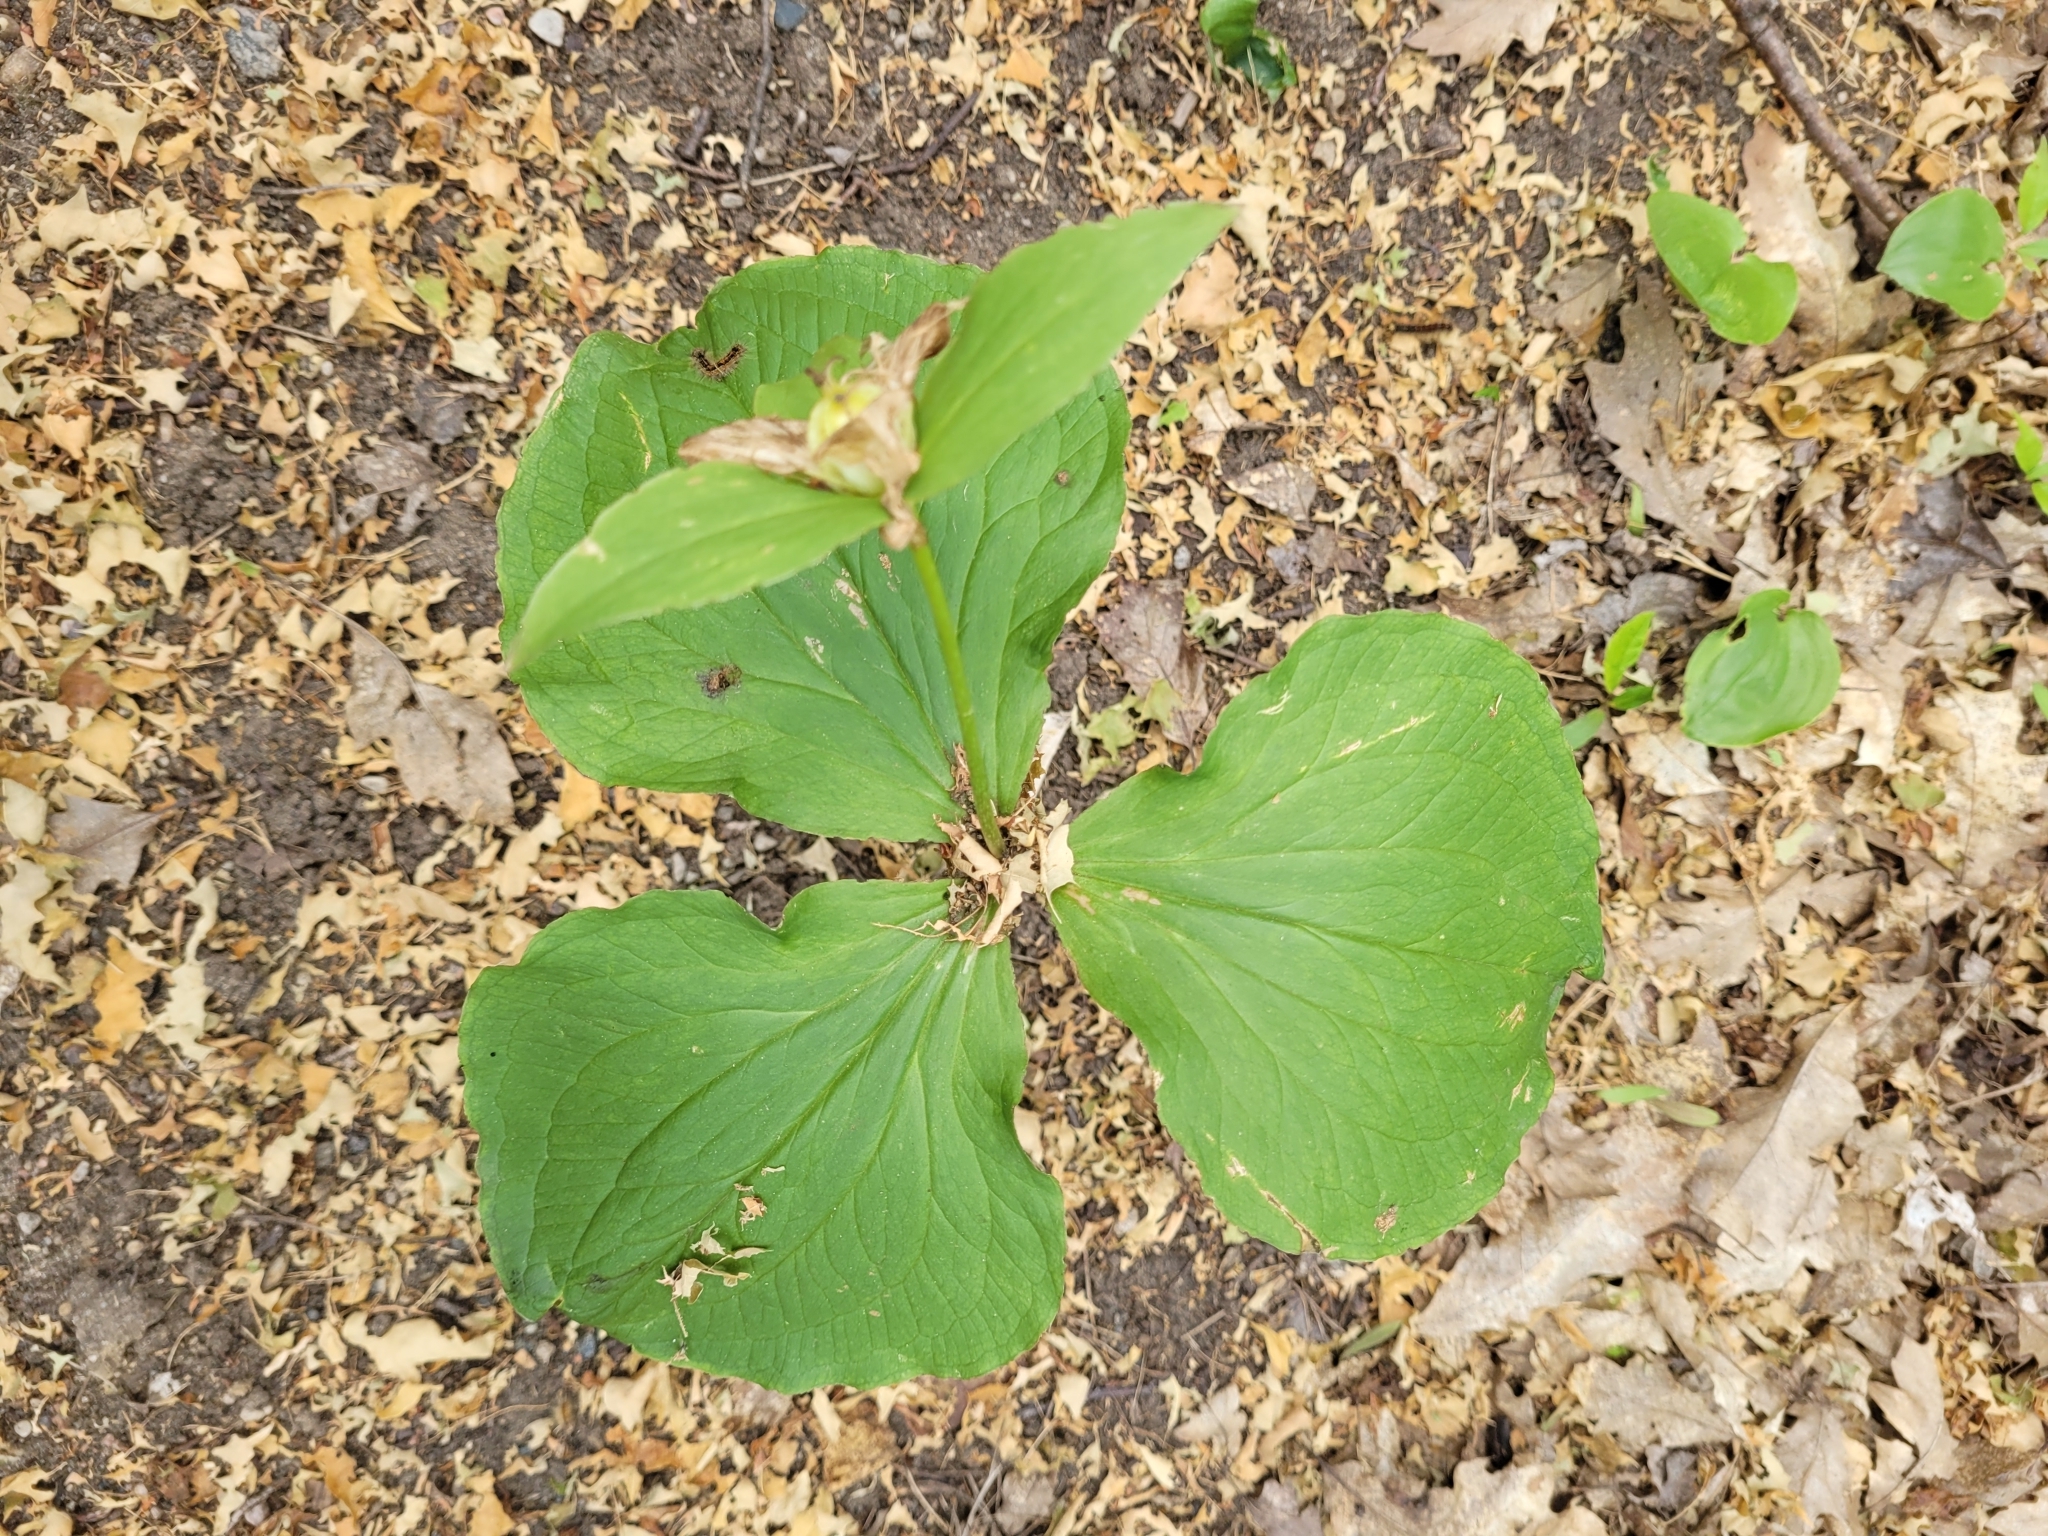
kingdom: Plantae
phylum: Tracheophyta
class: Liliopsida
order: Liliales
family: Melanthiaceae
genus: Trillium
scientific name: Trillium grandiflorum
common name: Great white trillium
